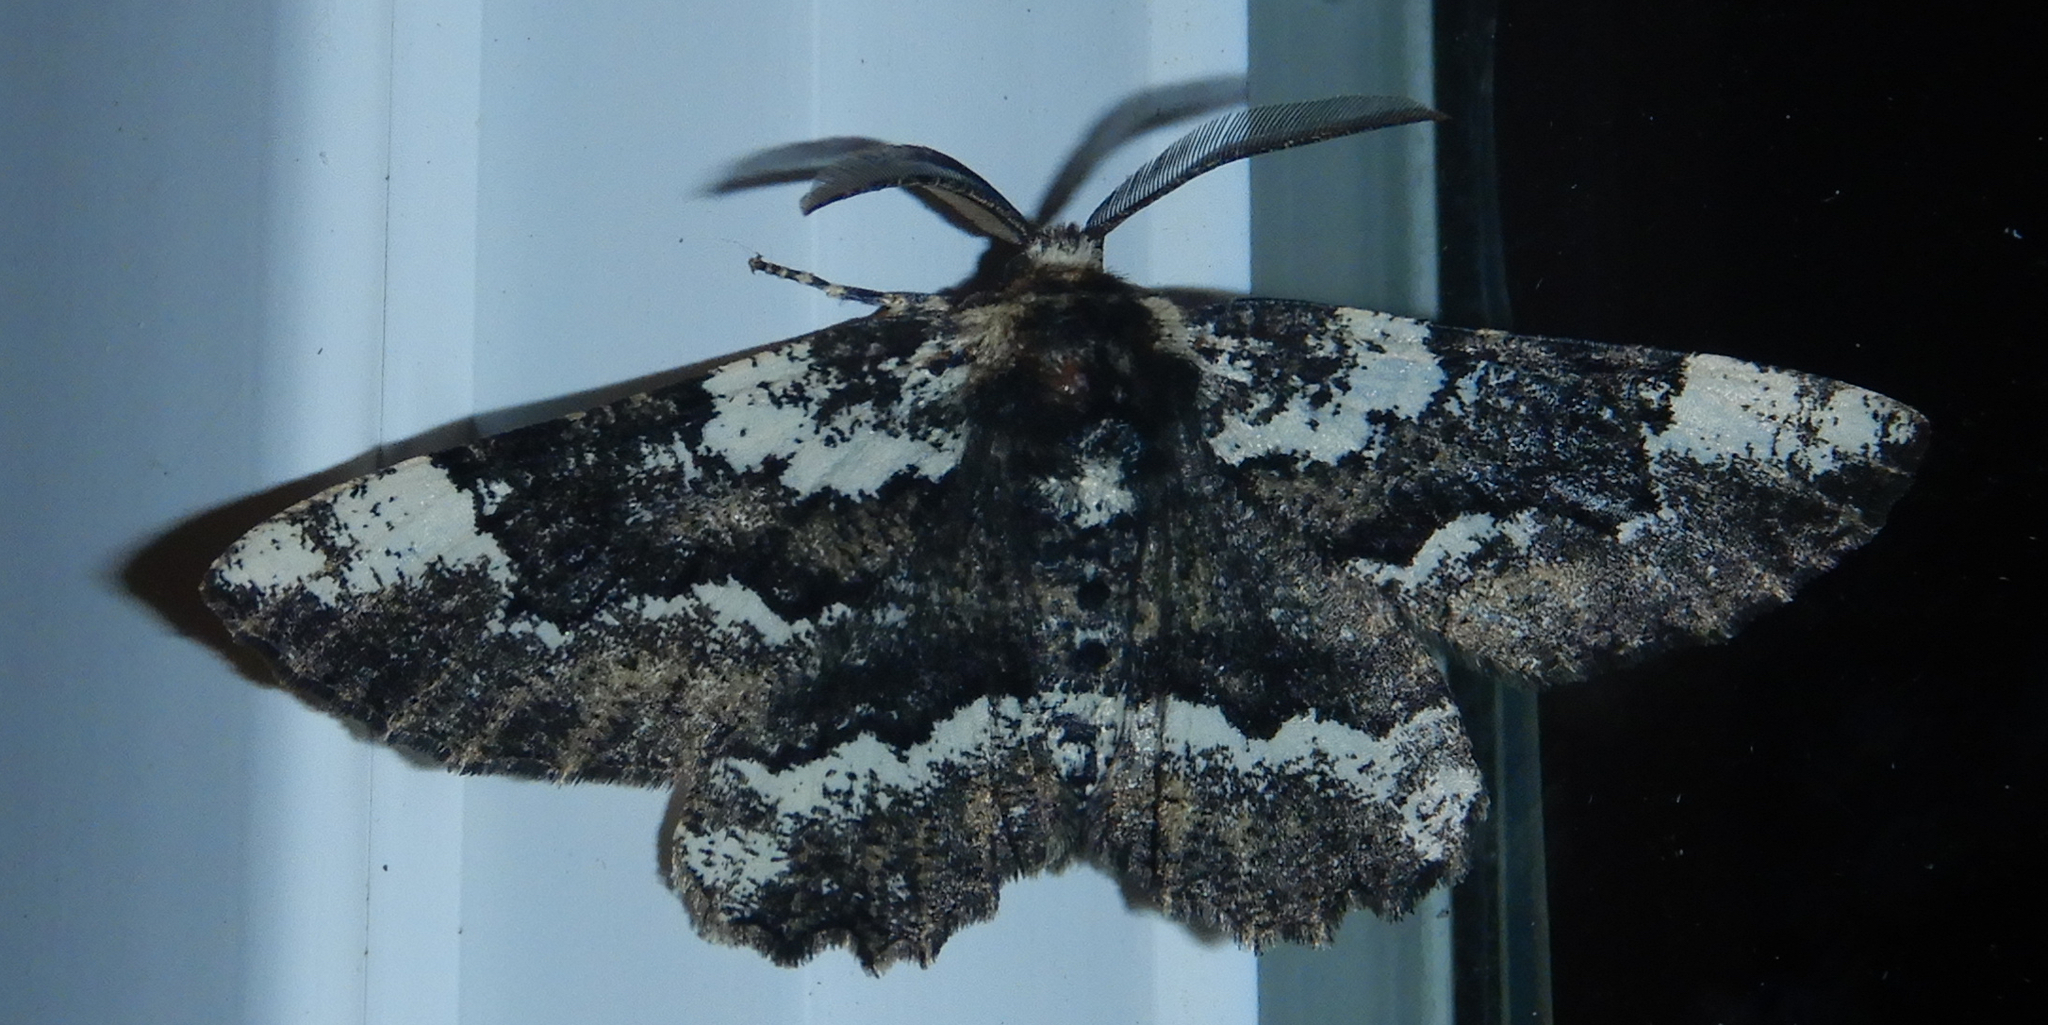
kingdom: Animalia
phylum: Arthropoda
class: Insecta
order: Lepidoptera
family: Geometridae
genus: Phaeoura
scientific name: Phaeoura quernaria
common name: Oak beauty
